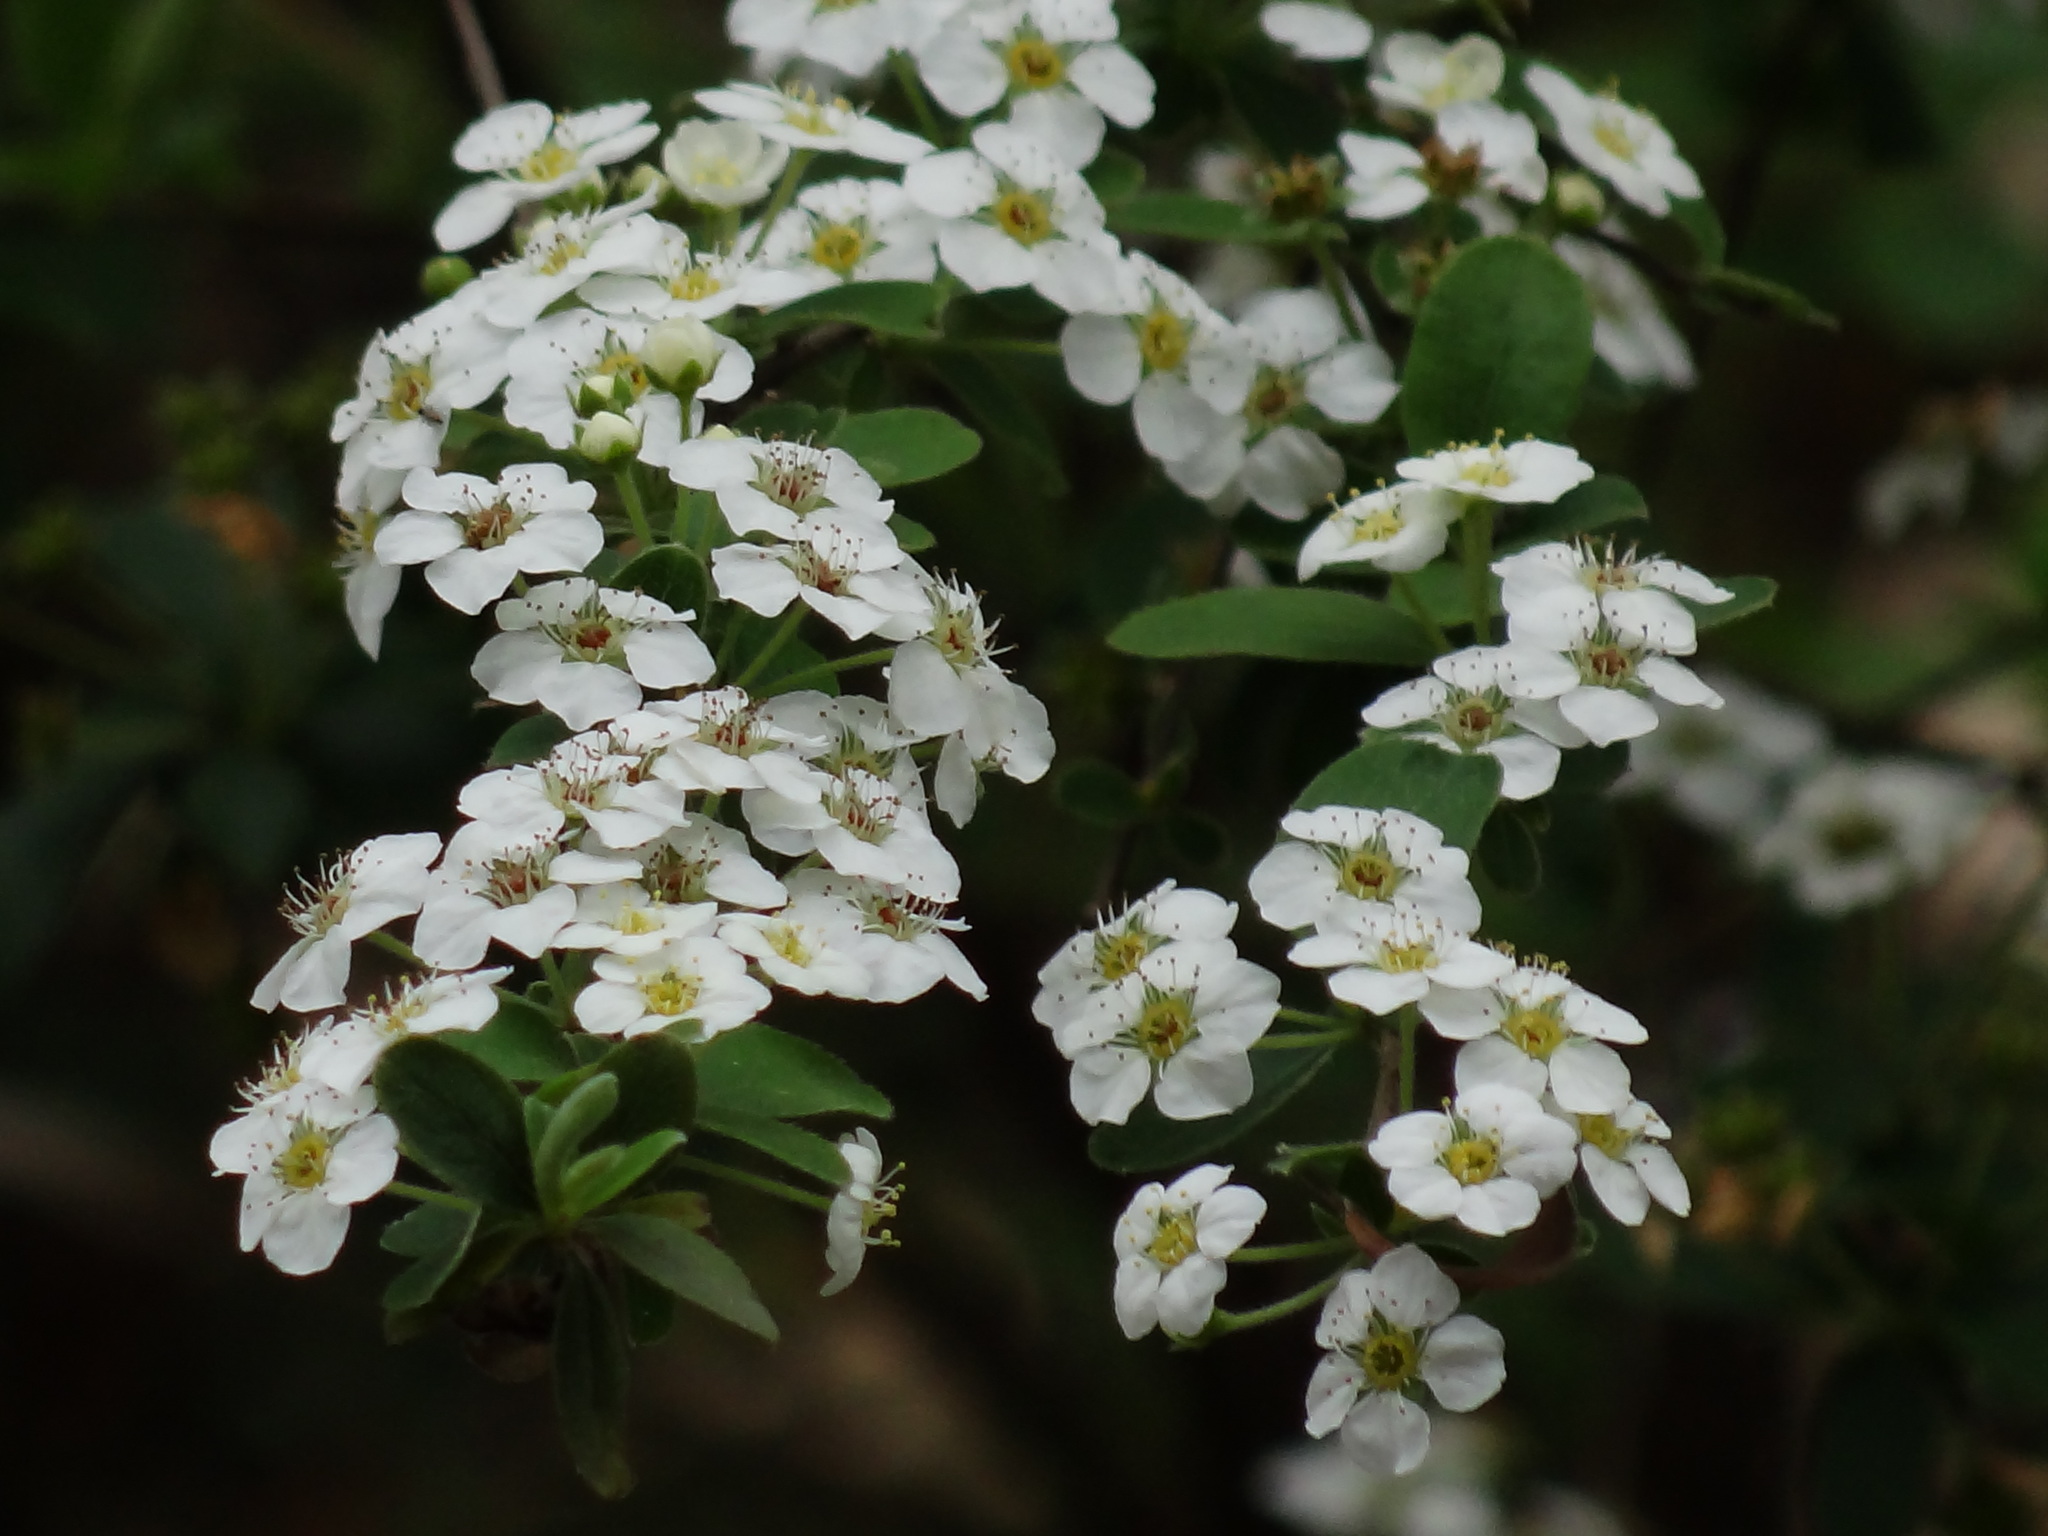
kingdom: Plantae
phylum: Tracheophyta
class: Magnoliopsida
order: Rosales
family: Rosaceae
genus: Spiraea
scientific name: Spiraea prunifolia
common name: Bridal-wreath spiraea
